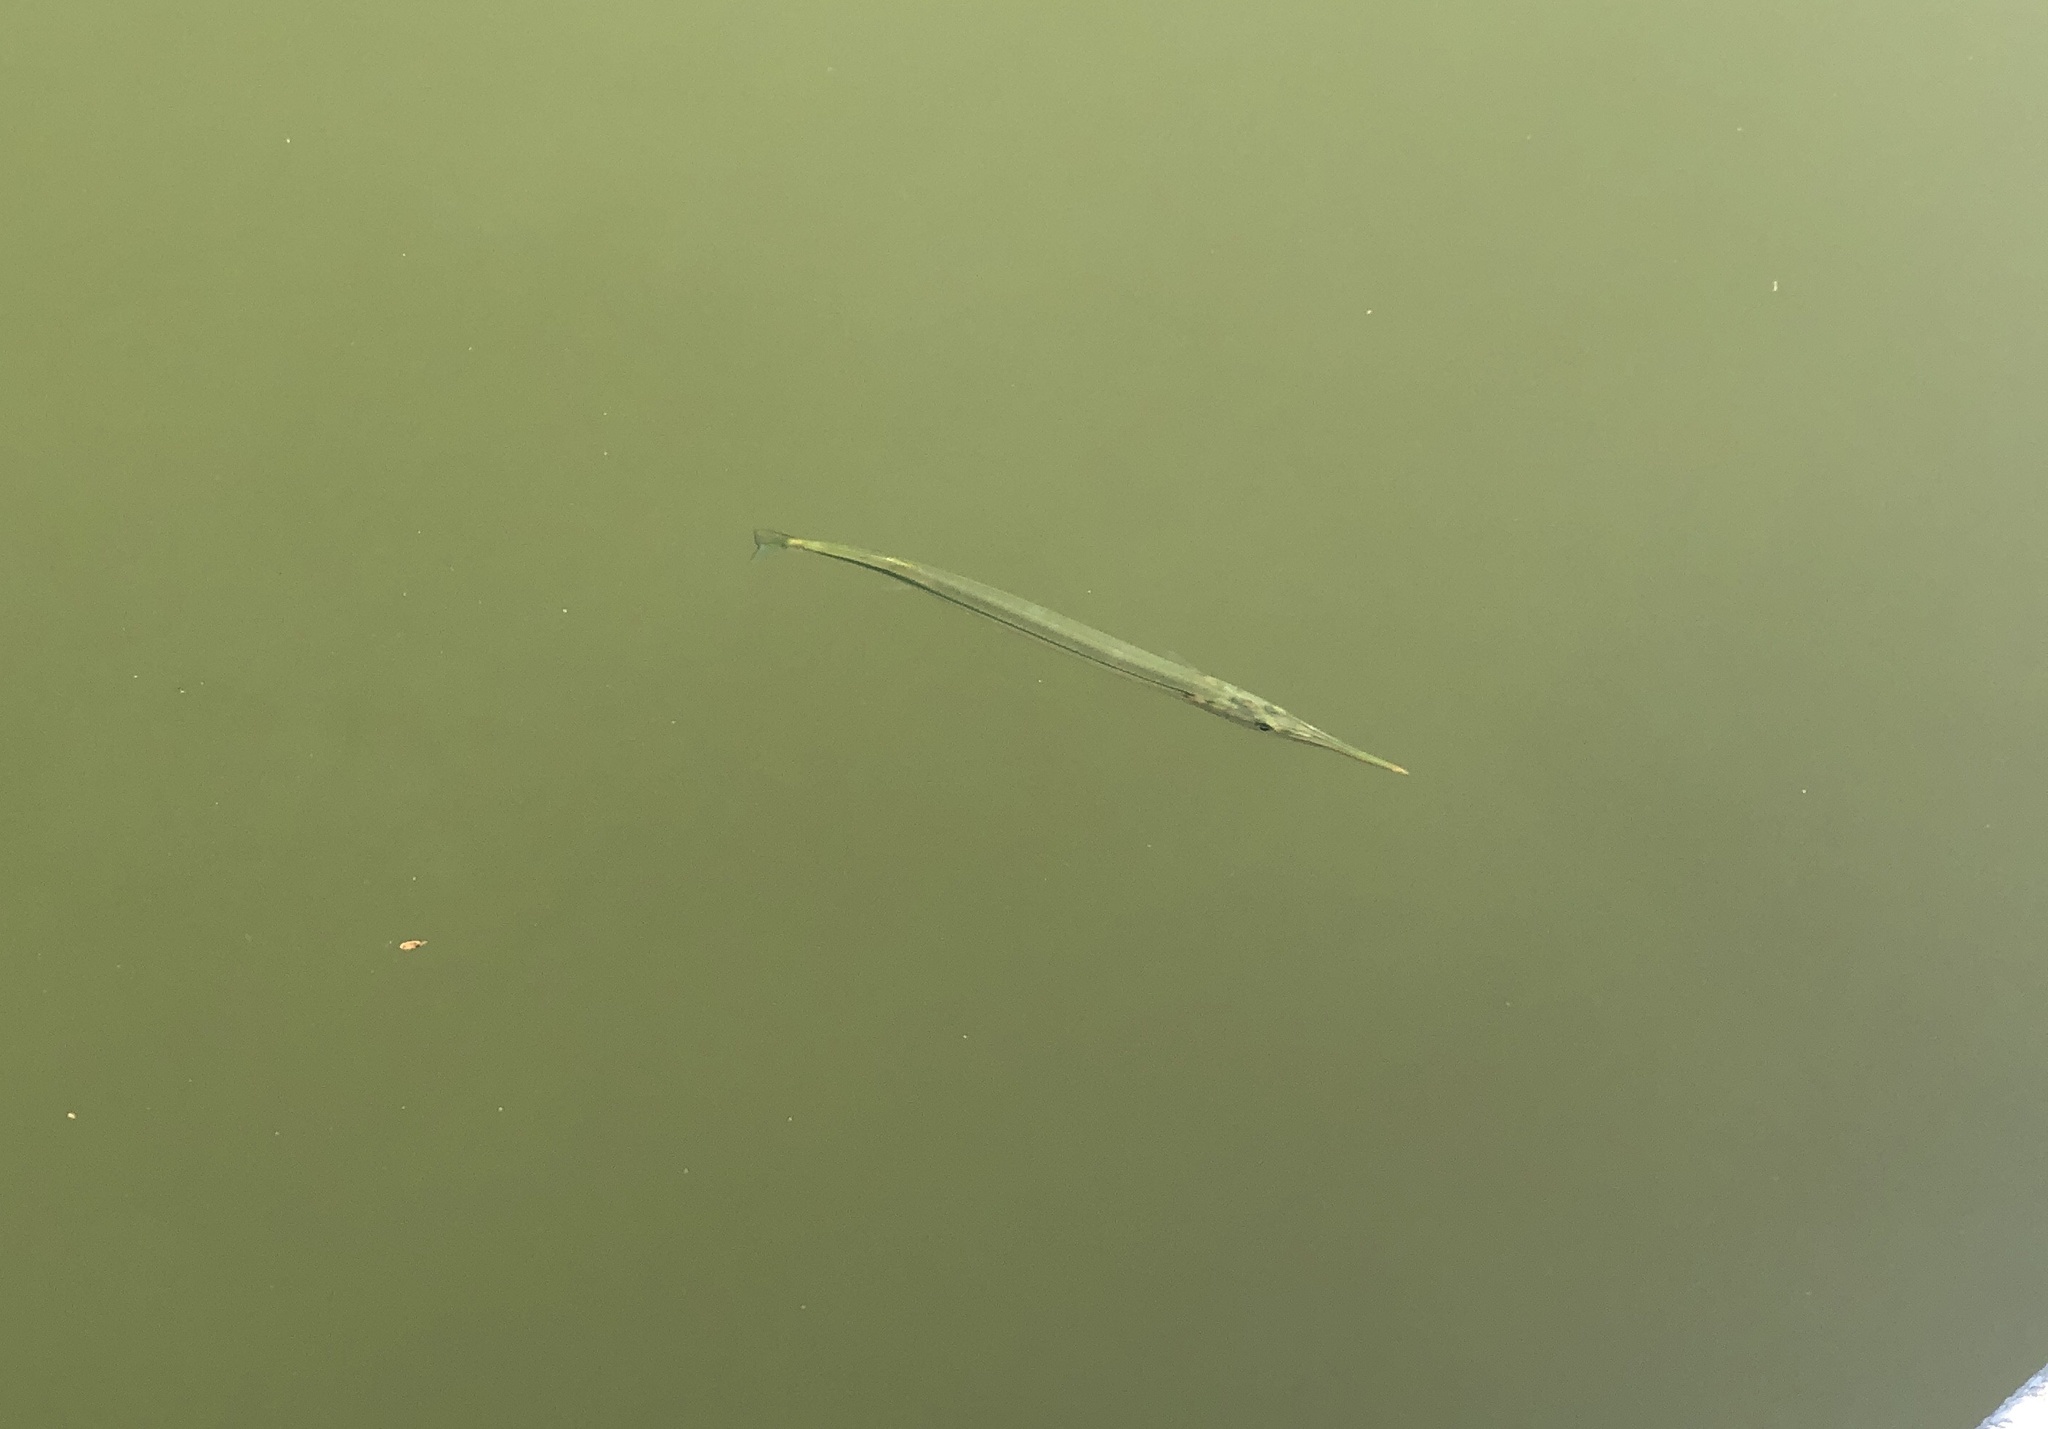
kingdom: Animalia
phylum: Chordata
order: Beloniformes
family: Belonidae
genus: Strongylura
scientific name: Strongylura marina
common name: Atlantic needlefish
